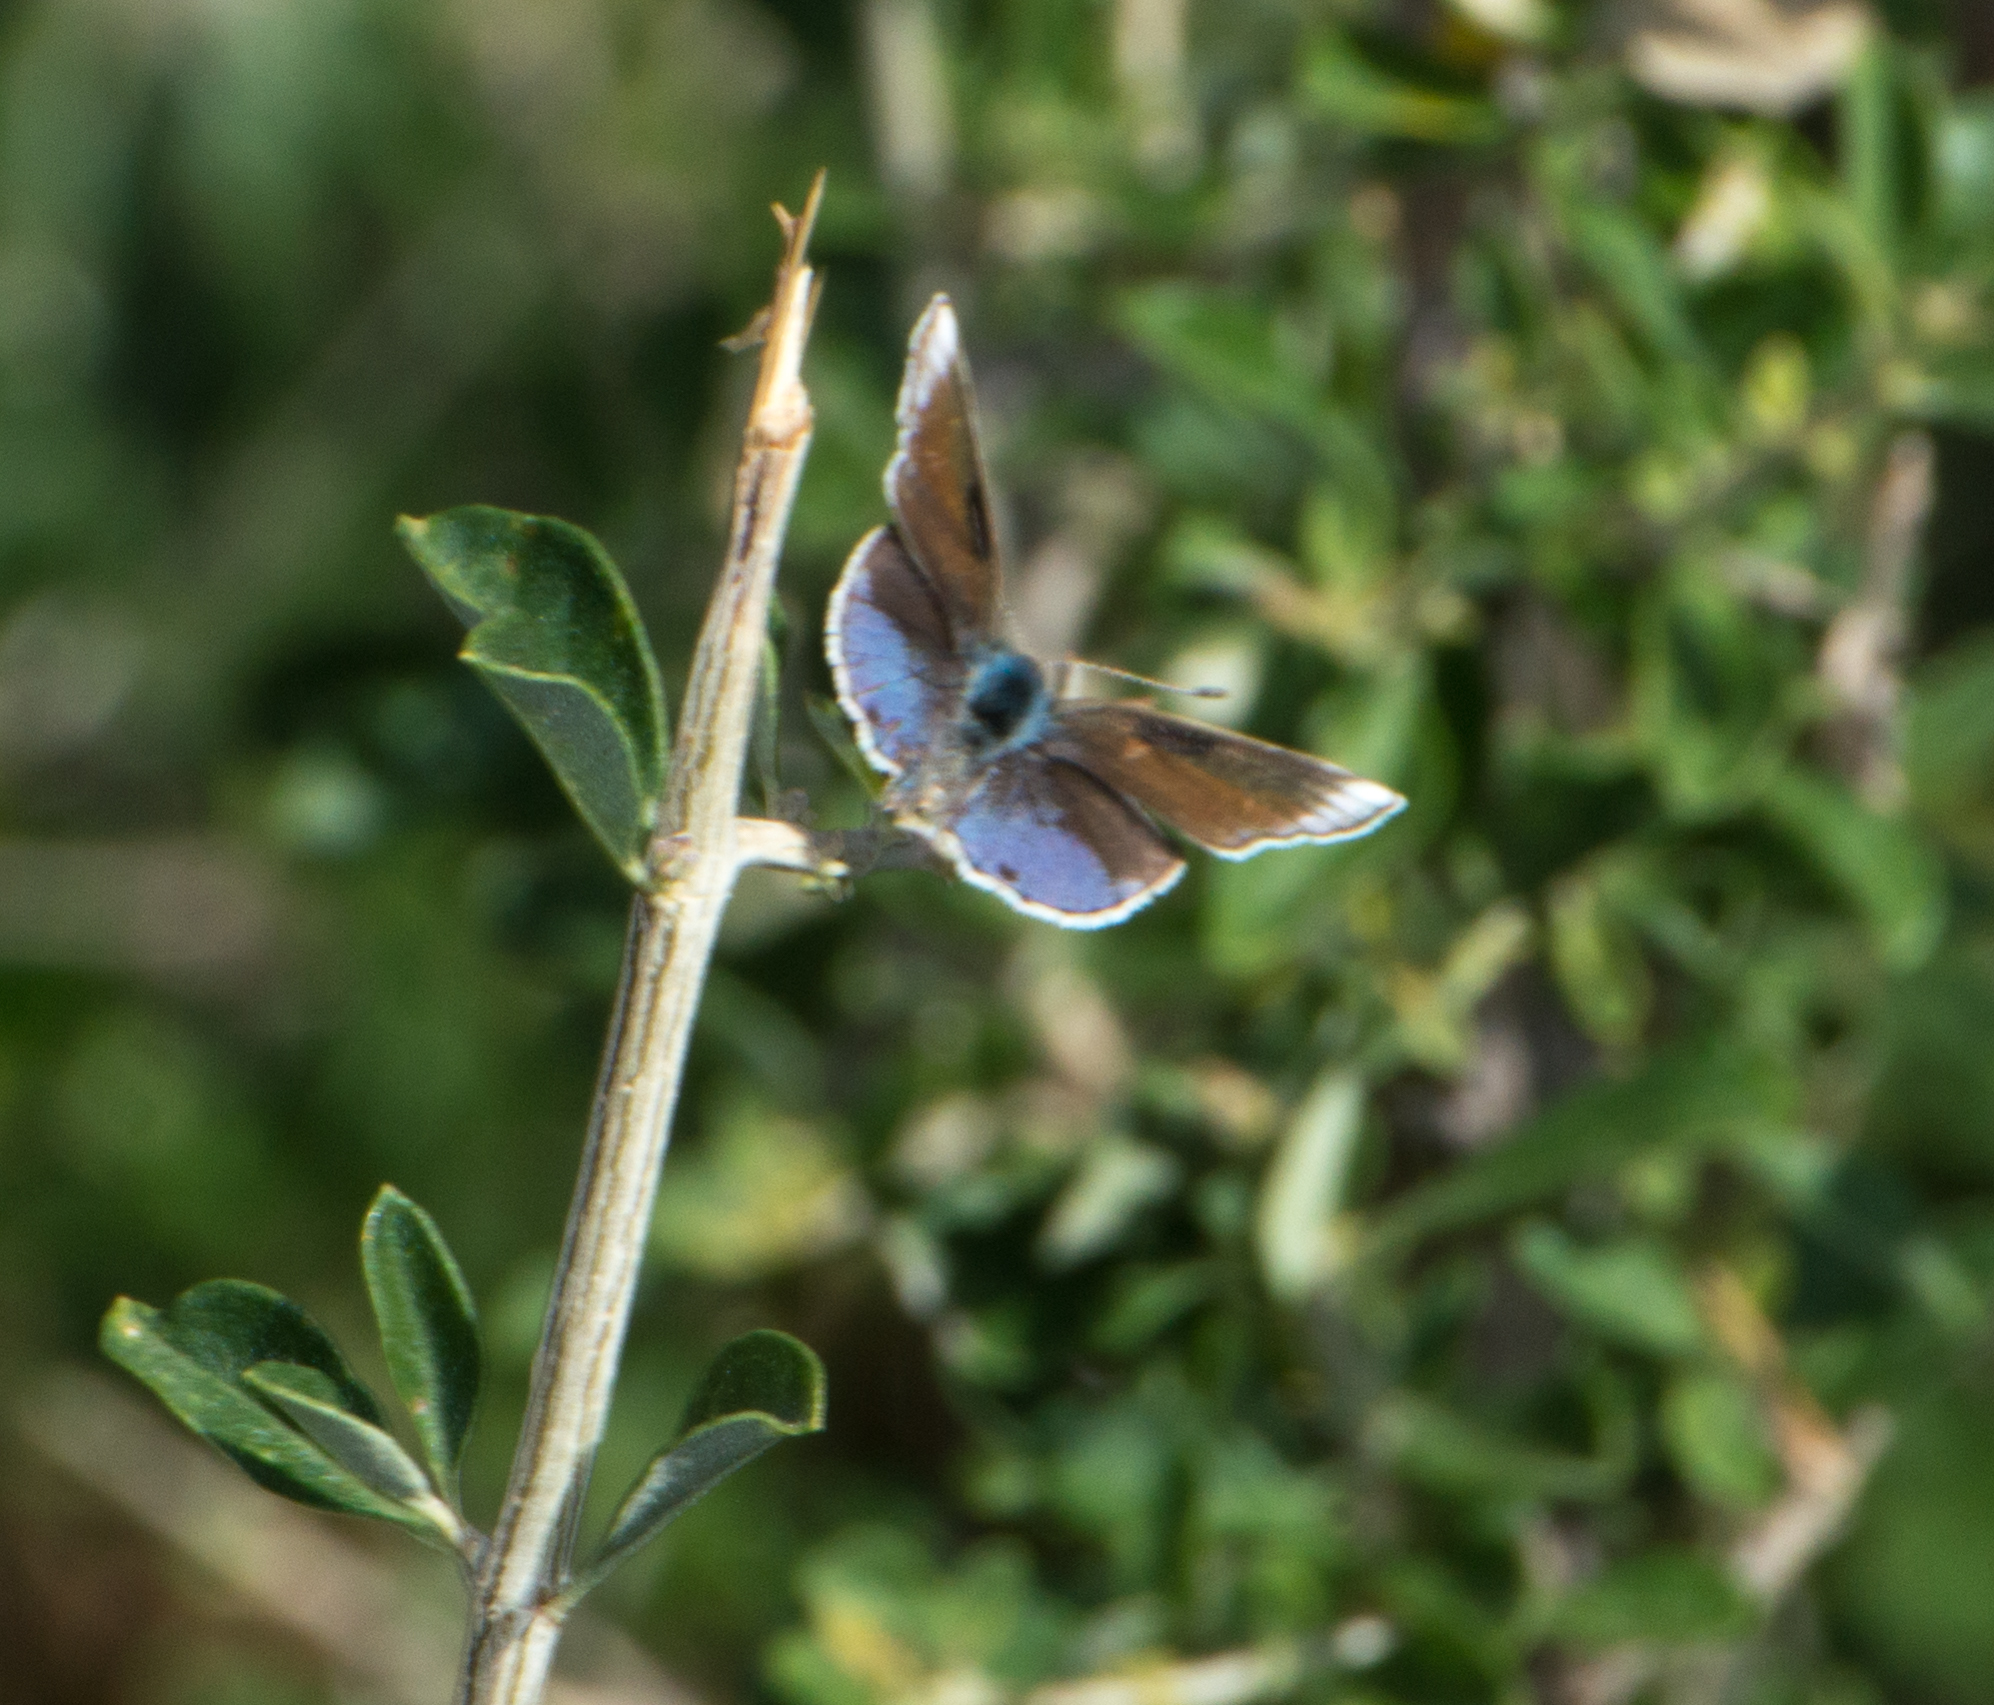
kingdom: Animalia
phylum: Arthropoda
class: Insecta
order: Lepidoptera
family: Lycaenidae
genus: Strymon
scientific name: Strymon bazochii
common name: Lantana scrub-hairstreak
